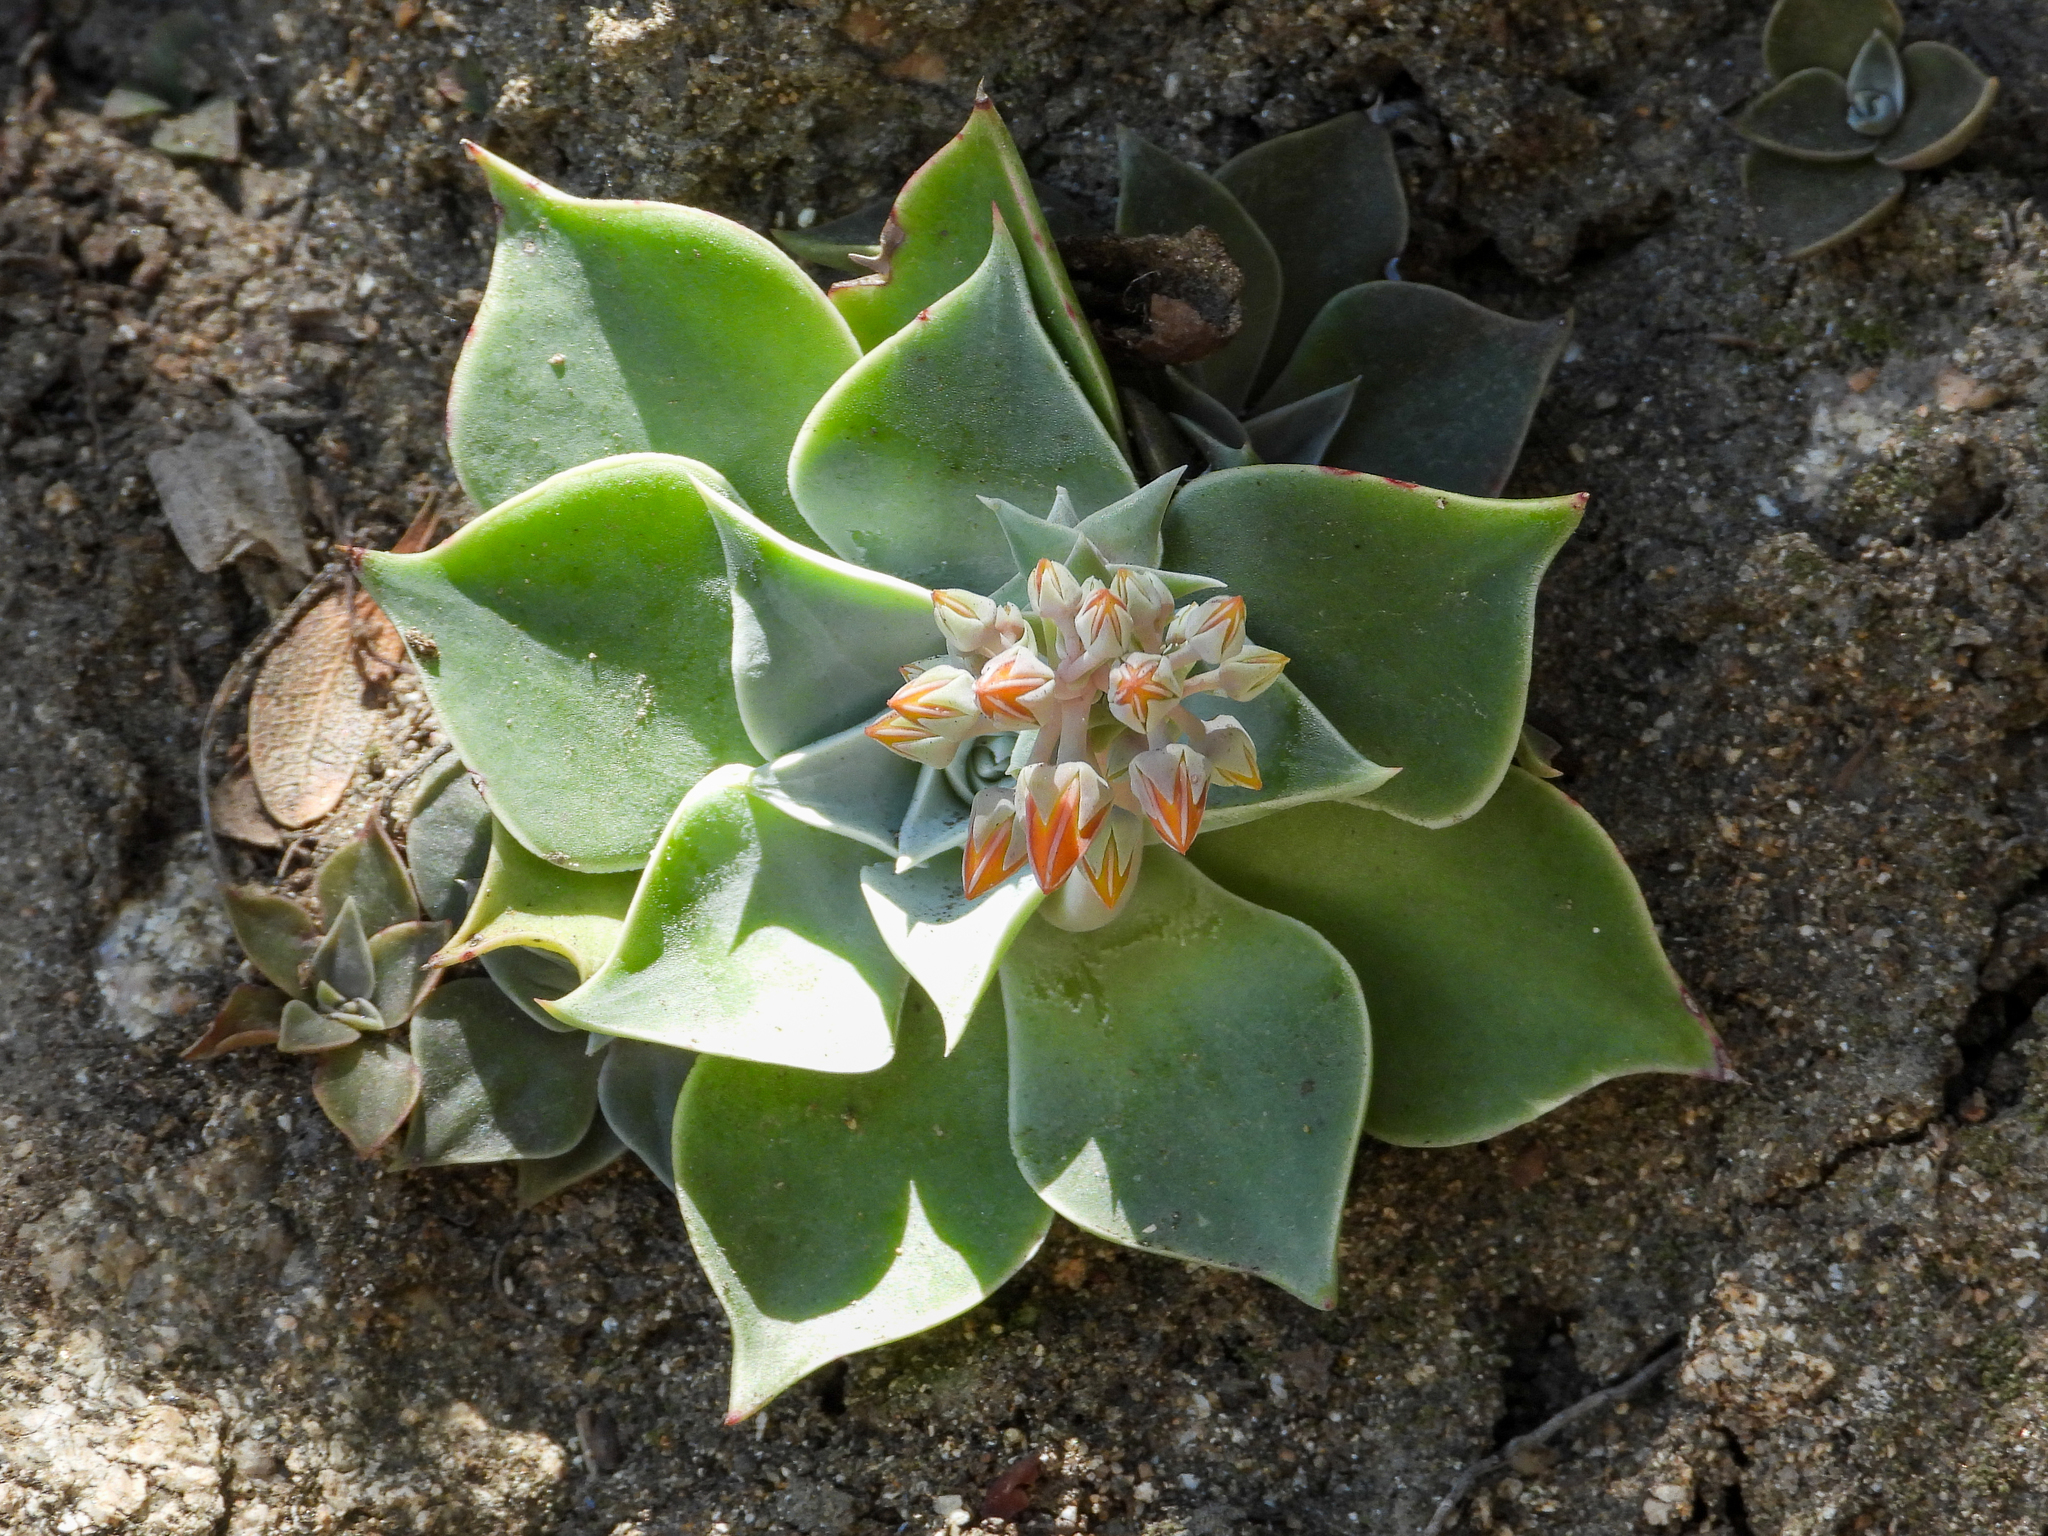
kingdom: Plantae
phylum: Tracheophyta
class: Magnoliopsida
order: Saxifragales
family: Crassulaceae
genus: Dudleya
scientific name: Dudleya cymosa
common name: Canyon dudleya
